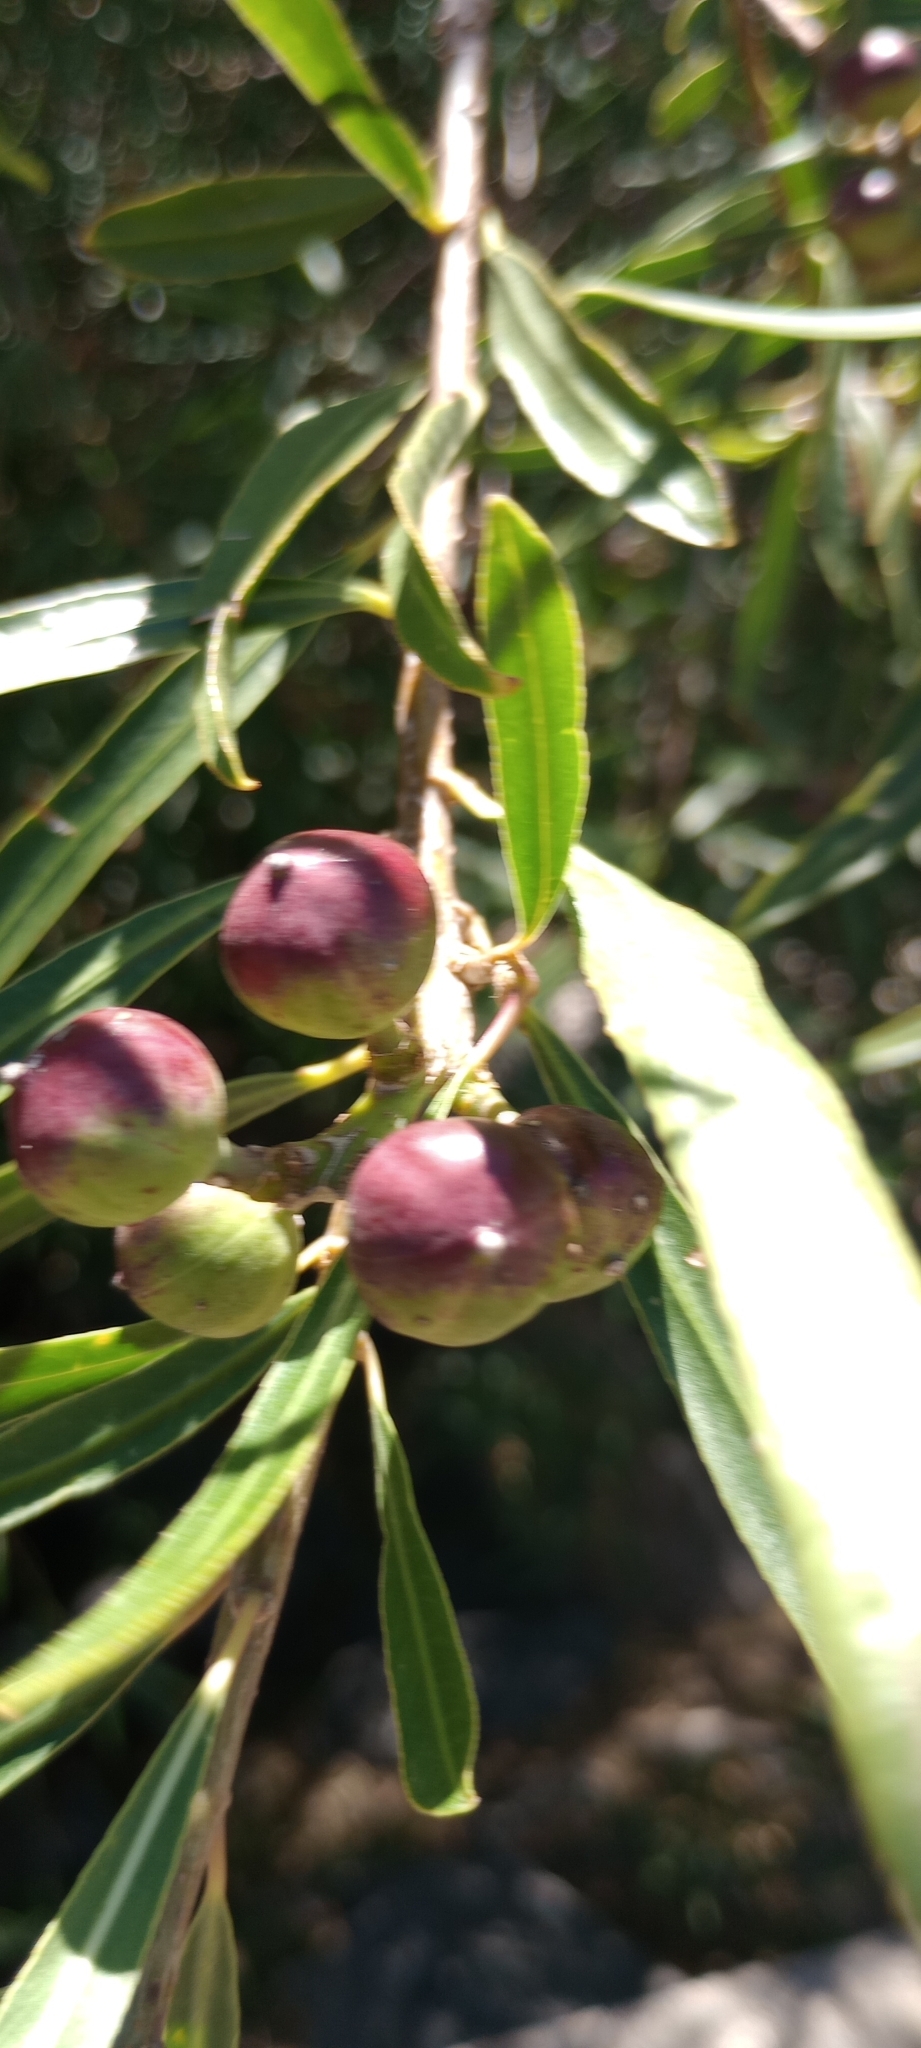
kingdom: Plantae
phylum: Tracheophyta
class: Magnoliopsida
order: Malpighiales
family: Euphorbiaceae
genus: Sapium
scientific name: Sapium haematospermum
